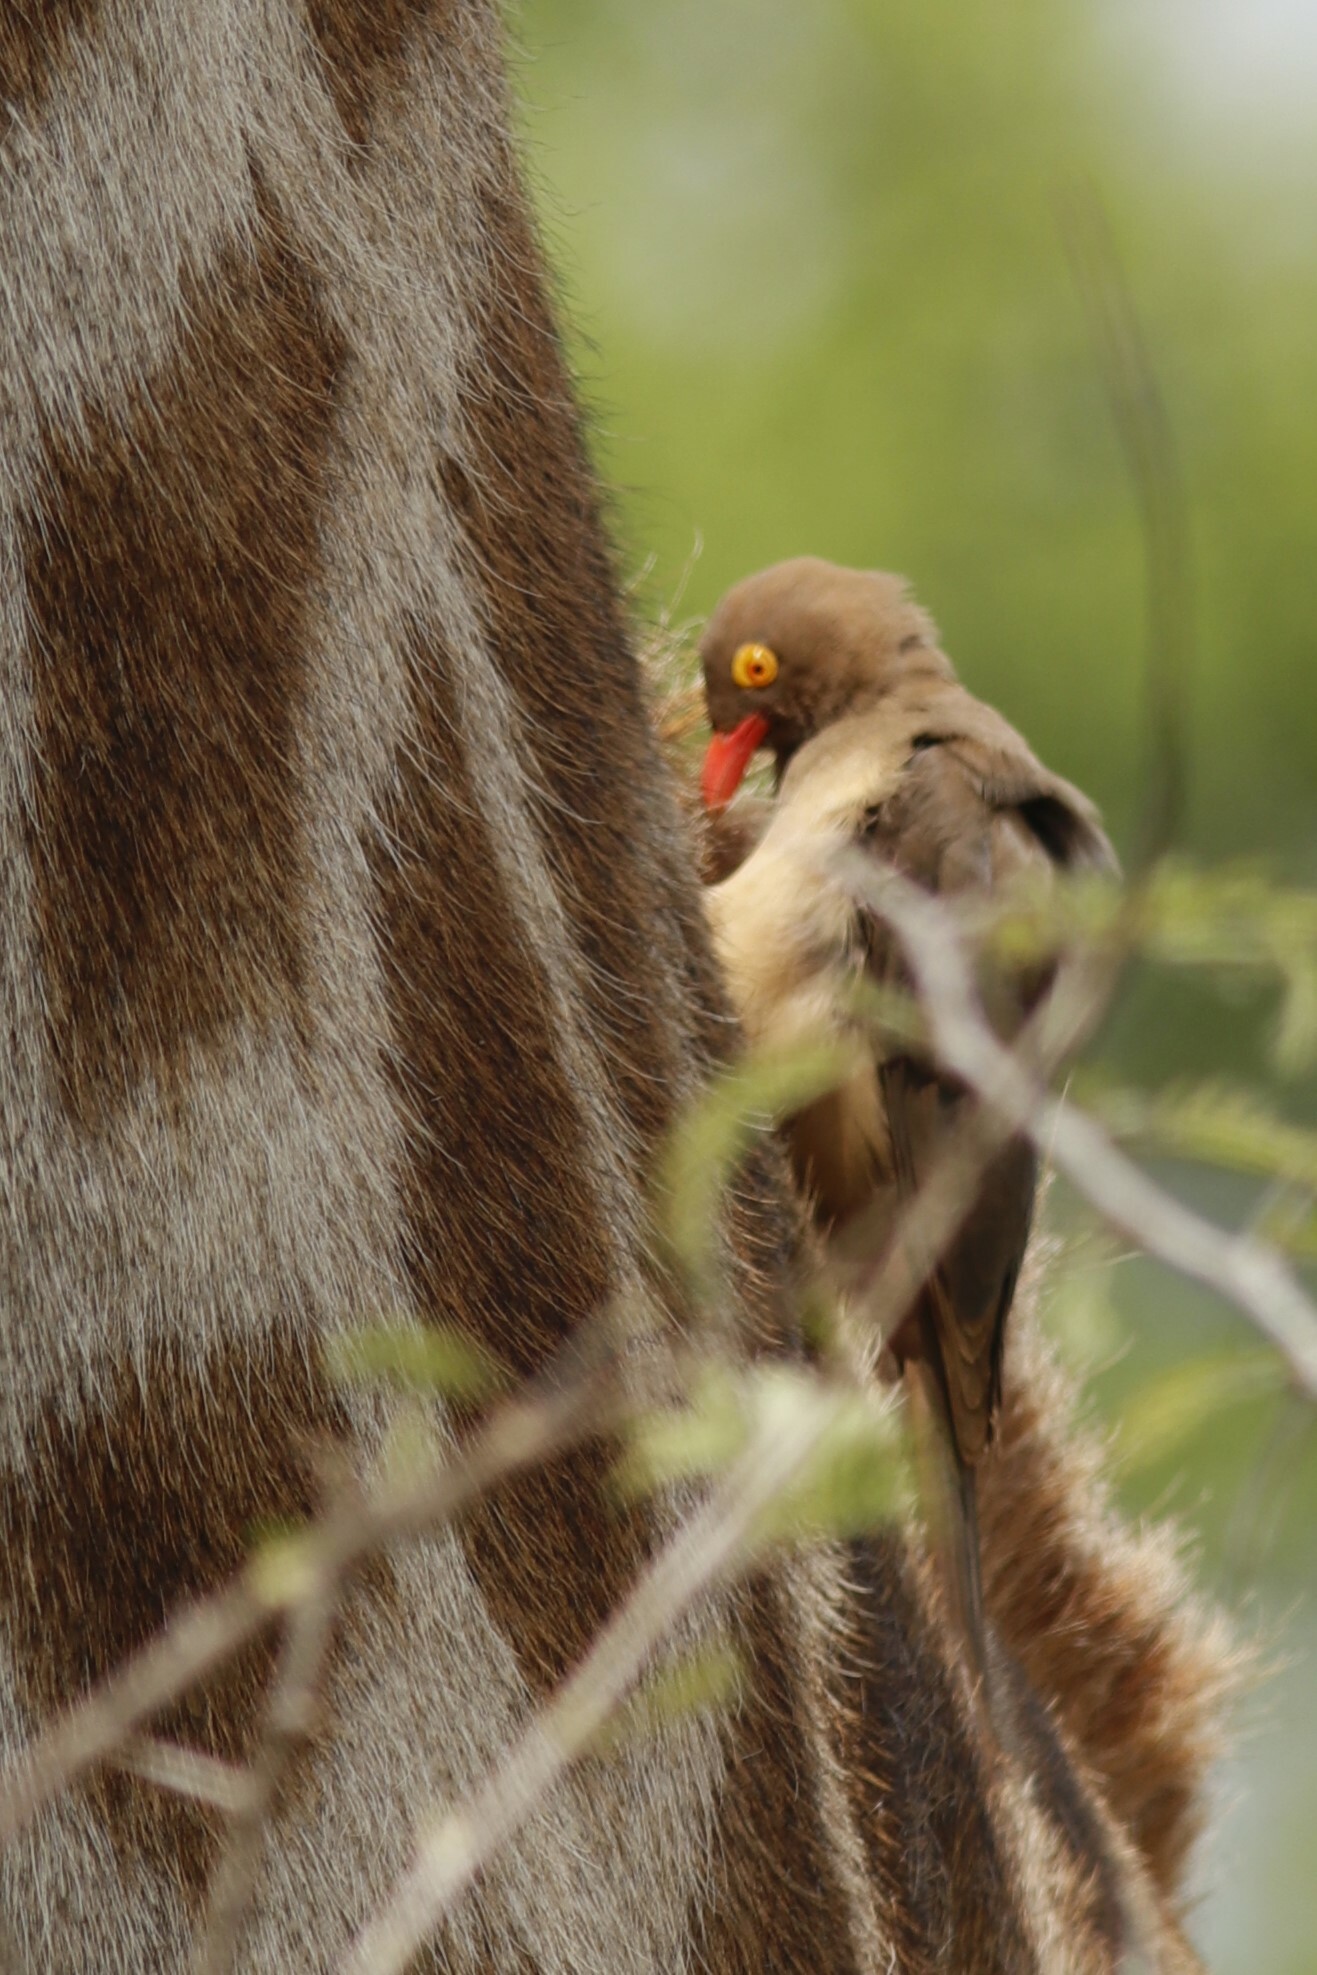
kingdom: Animalia
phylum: Chordata
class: Aves
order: Passeriformes
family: Buphagidae
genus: Buphagus
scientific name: Buphagus erythrorhynchus
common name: Red-billed oxpecker
